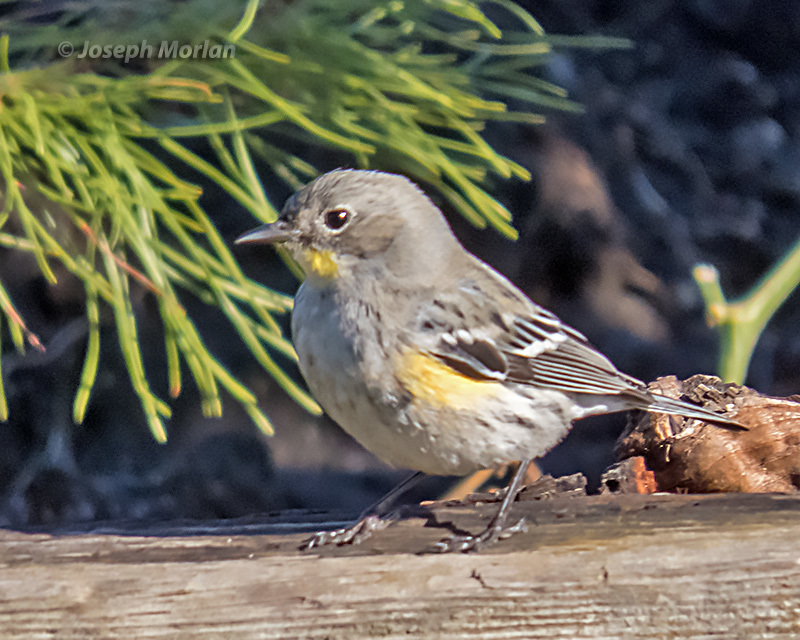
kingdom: Animalia
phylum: Chordata
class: Aves
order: Passeriformes
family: Parulidae
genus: Setophaga
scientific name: Setophaga coronata
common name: Myrtle warbler
